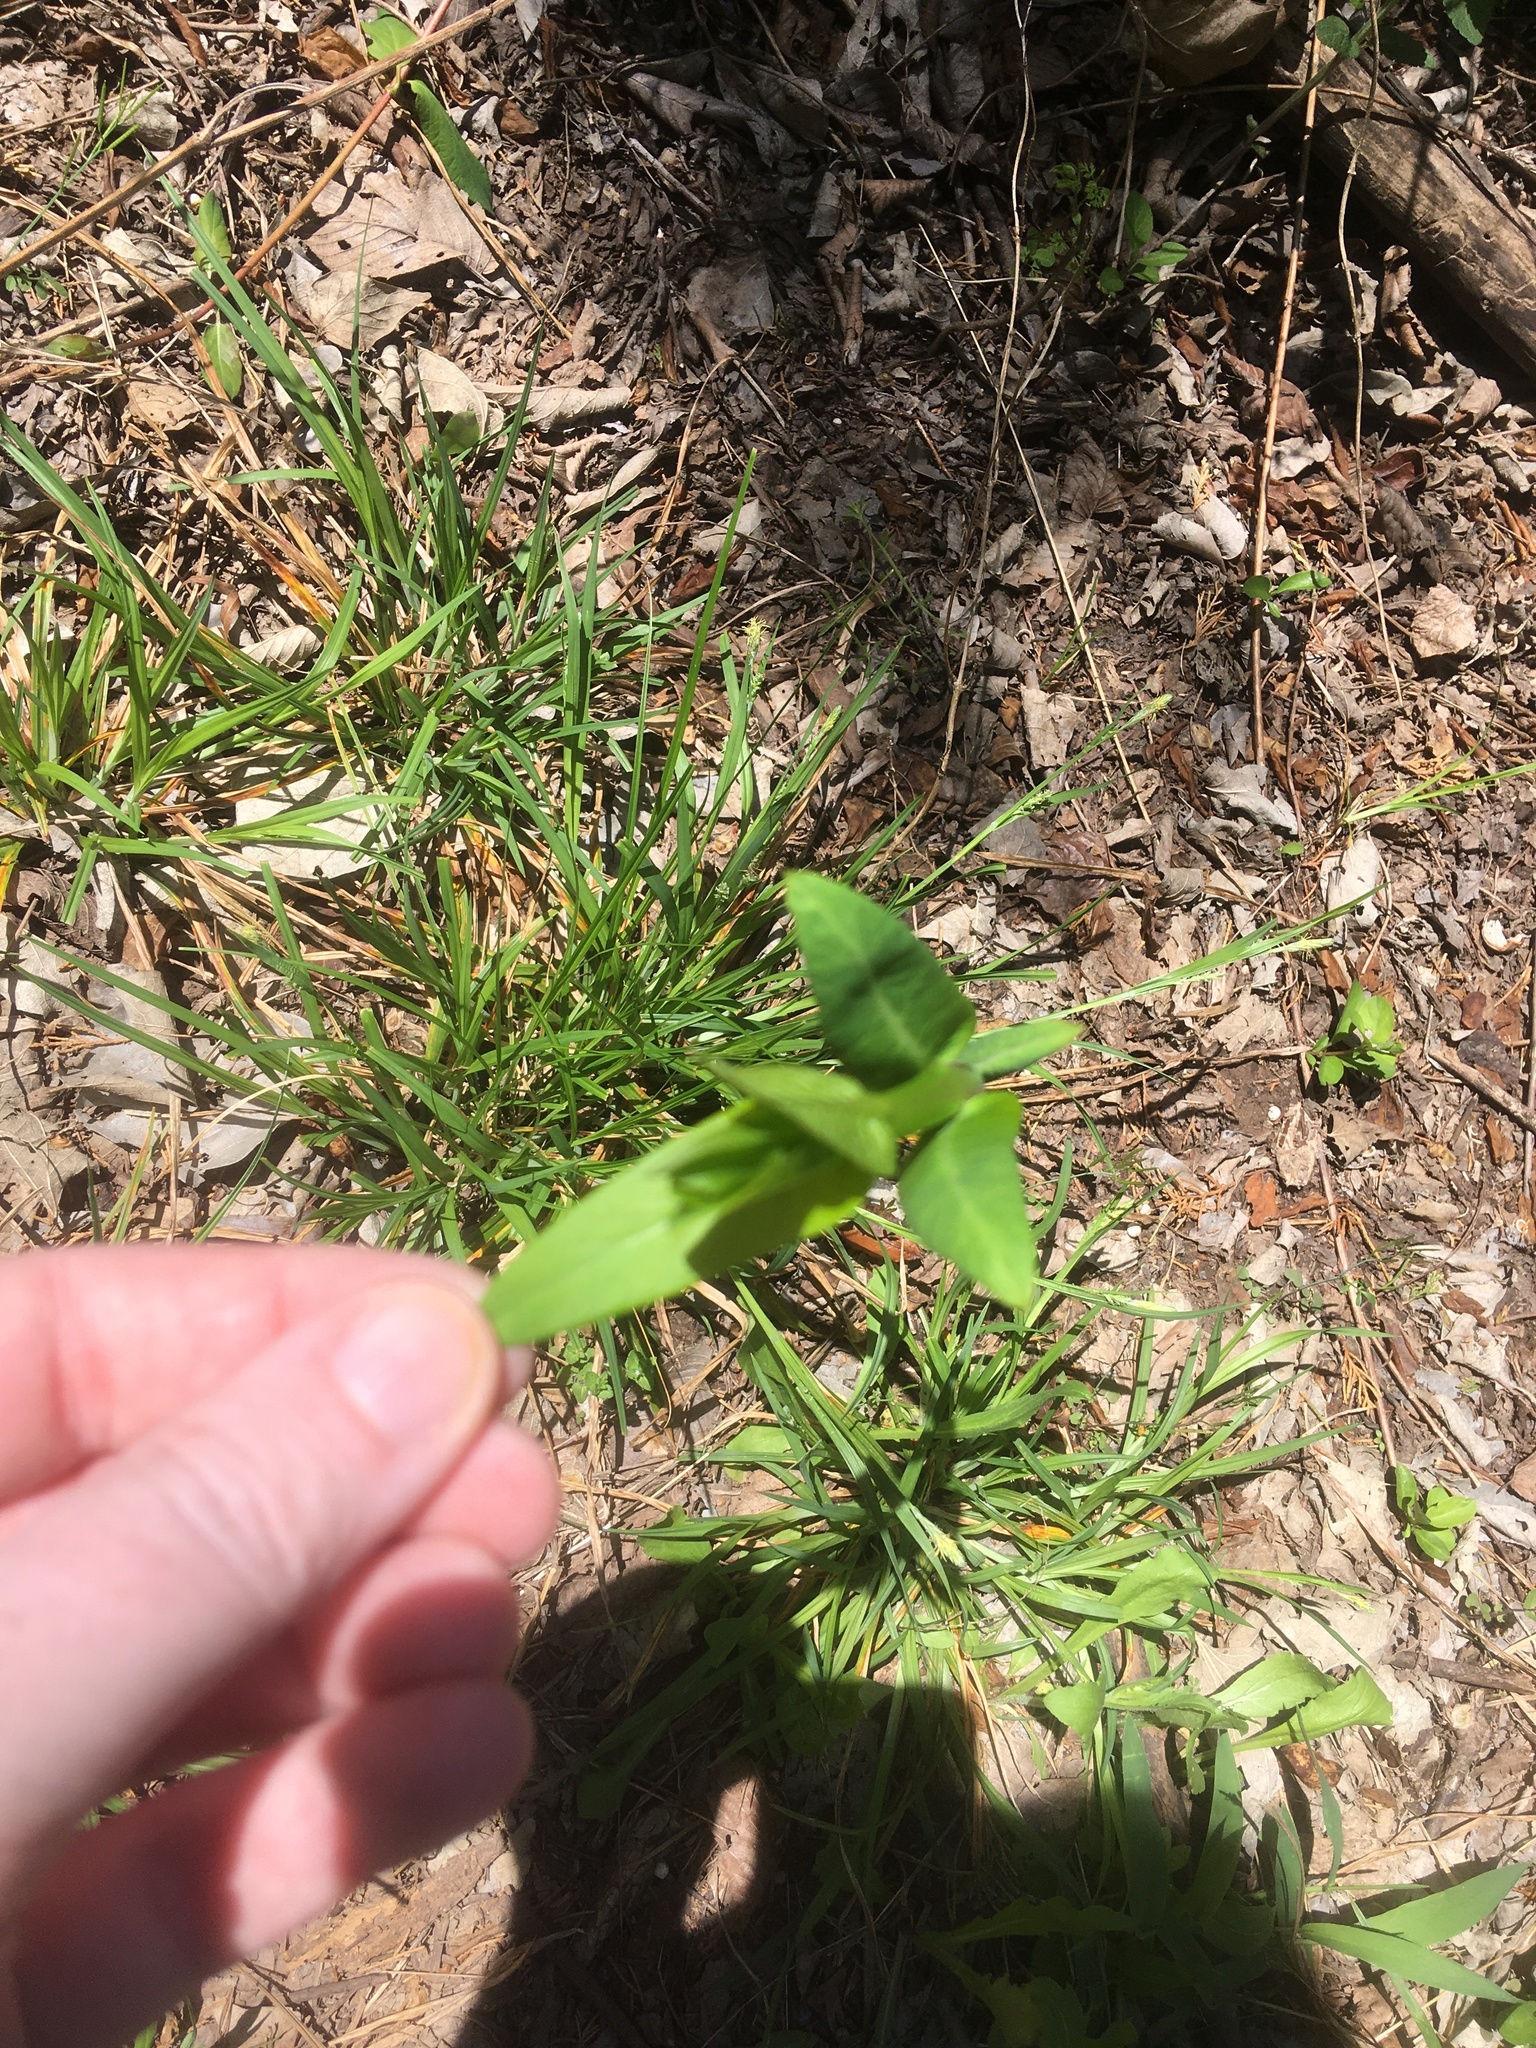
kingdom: Plantae
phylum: Tracheophyta
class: Magnoliopsida
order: Gentianales
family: Apocynaceae
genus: Apocynum
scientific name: Apocynum cannabinum
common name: Hemp dogbane
